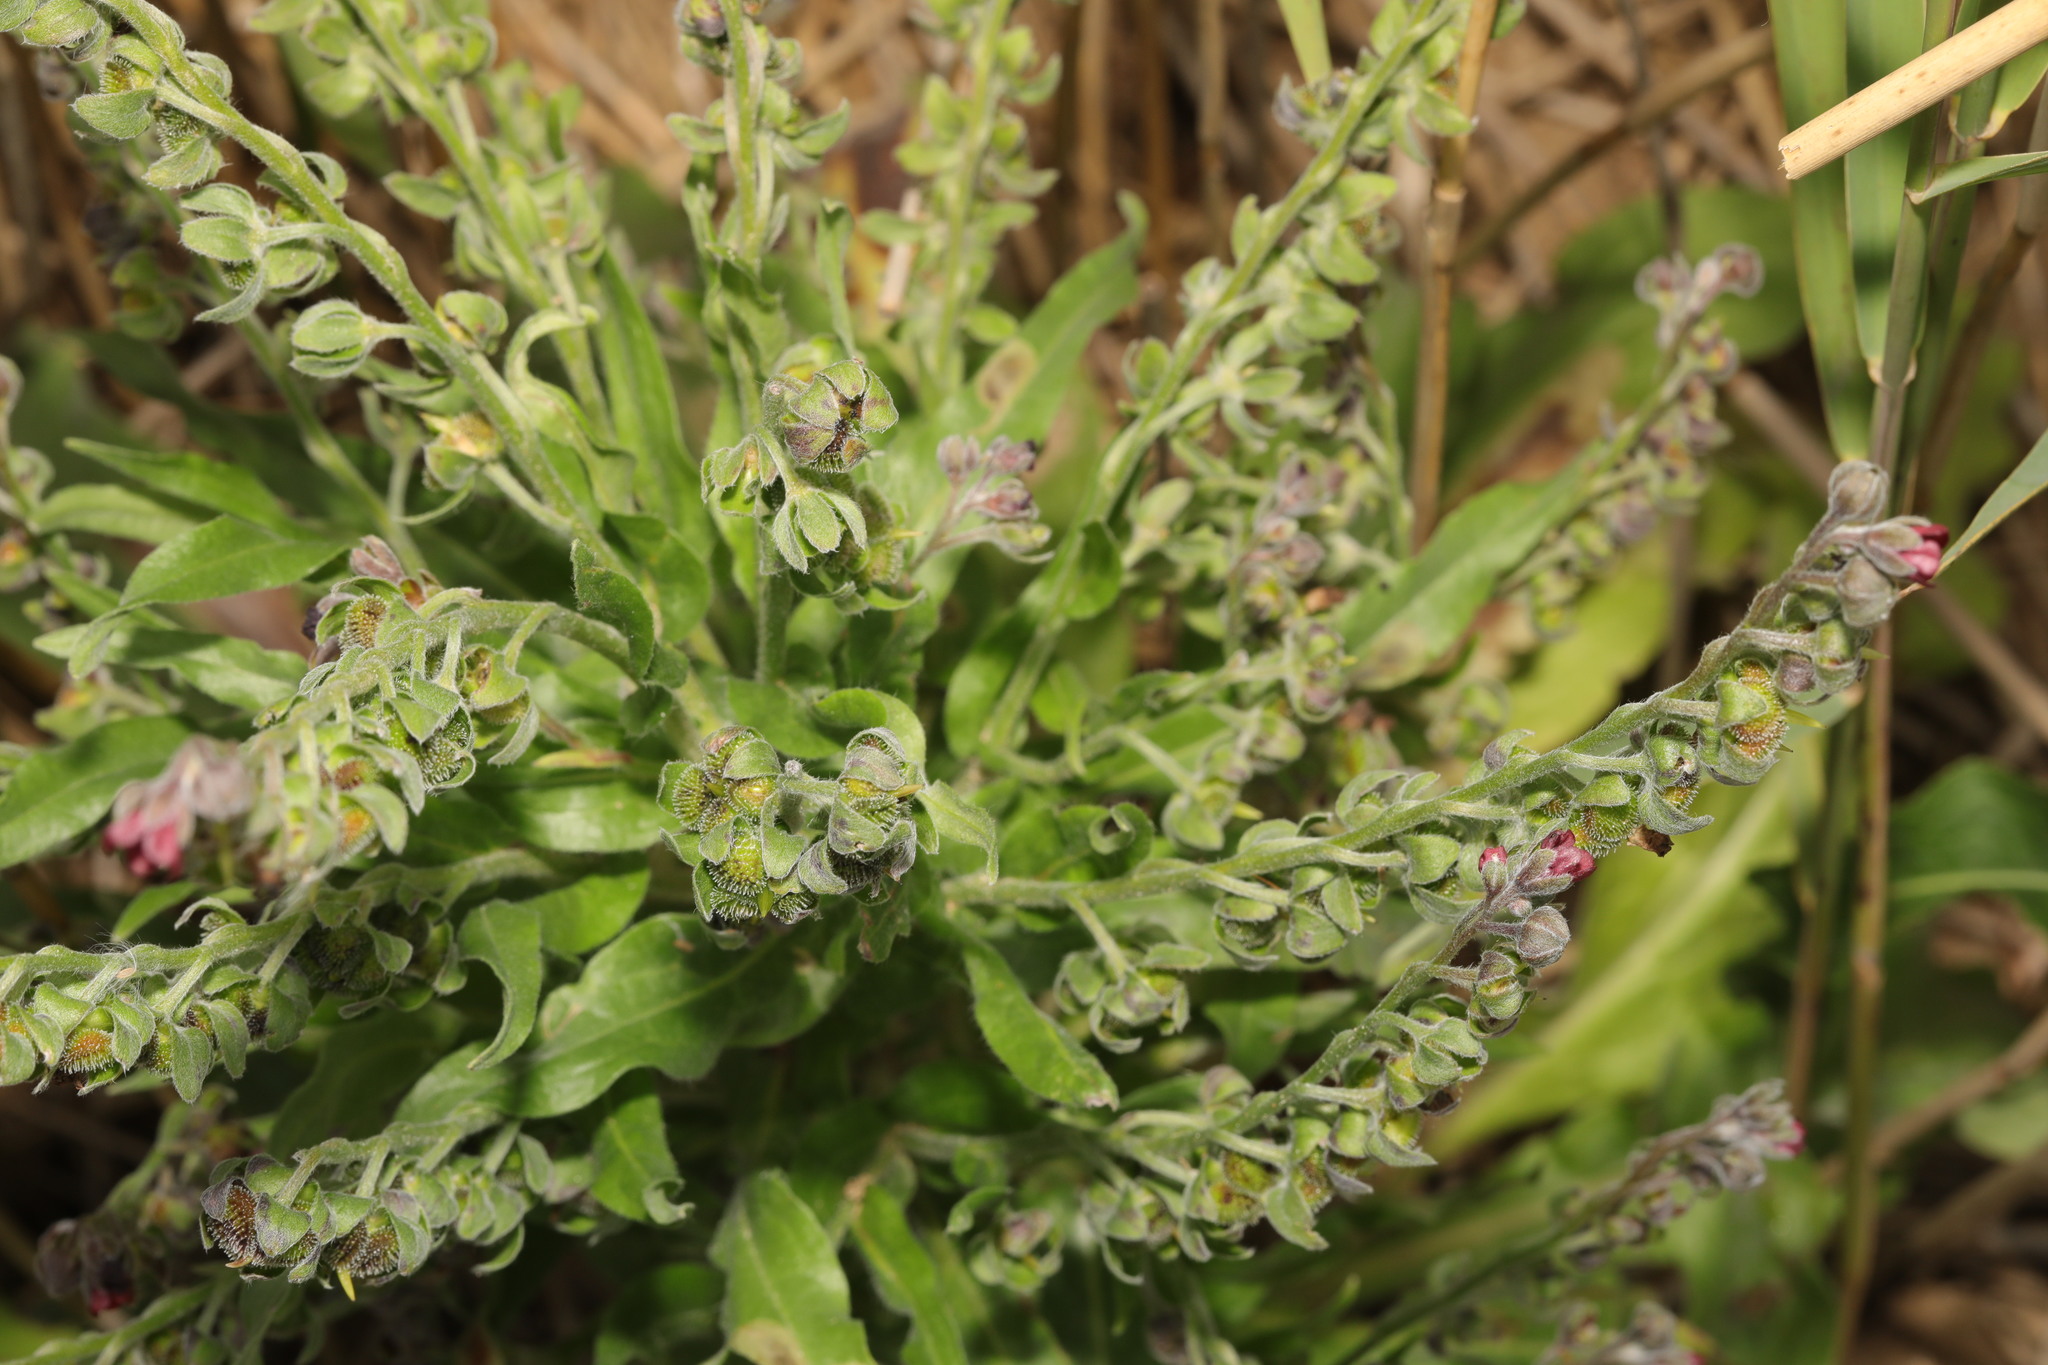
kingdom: Plantae
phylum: Tracheophyta
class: Magnoliopsida
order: Boraginales
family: Boraginaceae
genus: Cynoglossum
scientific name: Cynoglossum officinale
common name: Hound's-tongue
